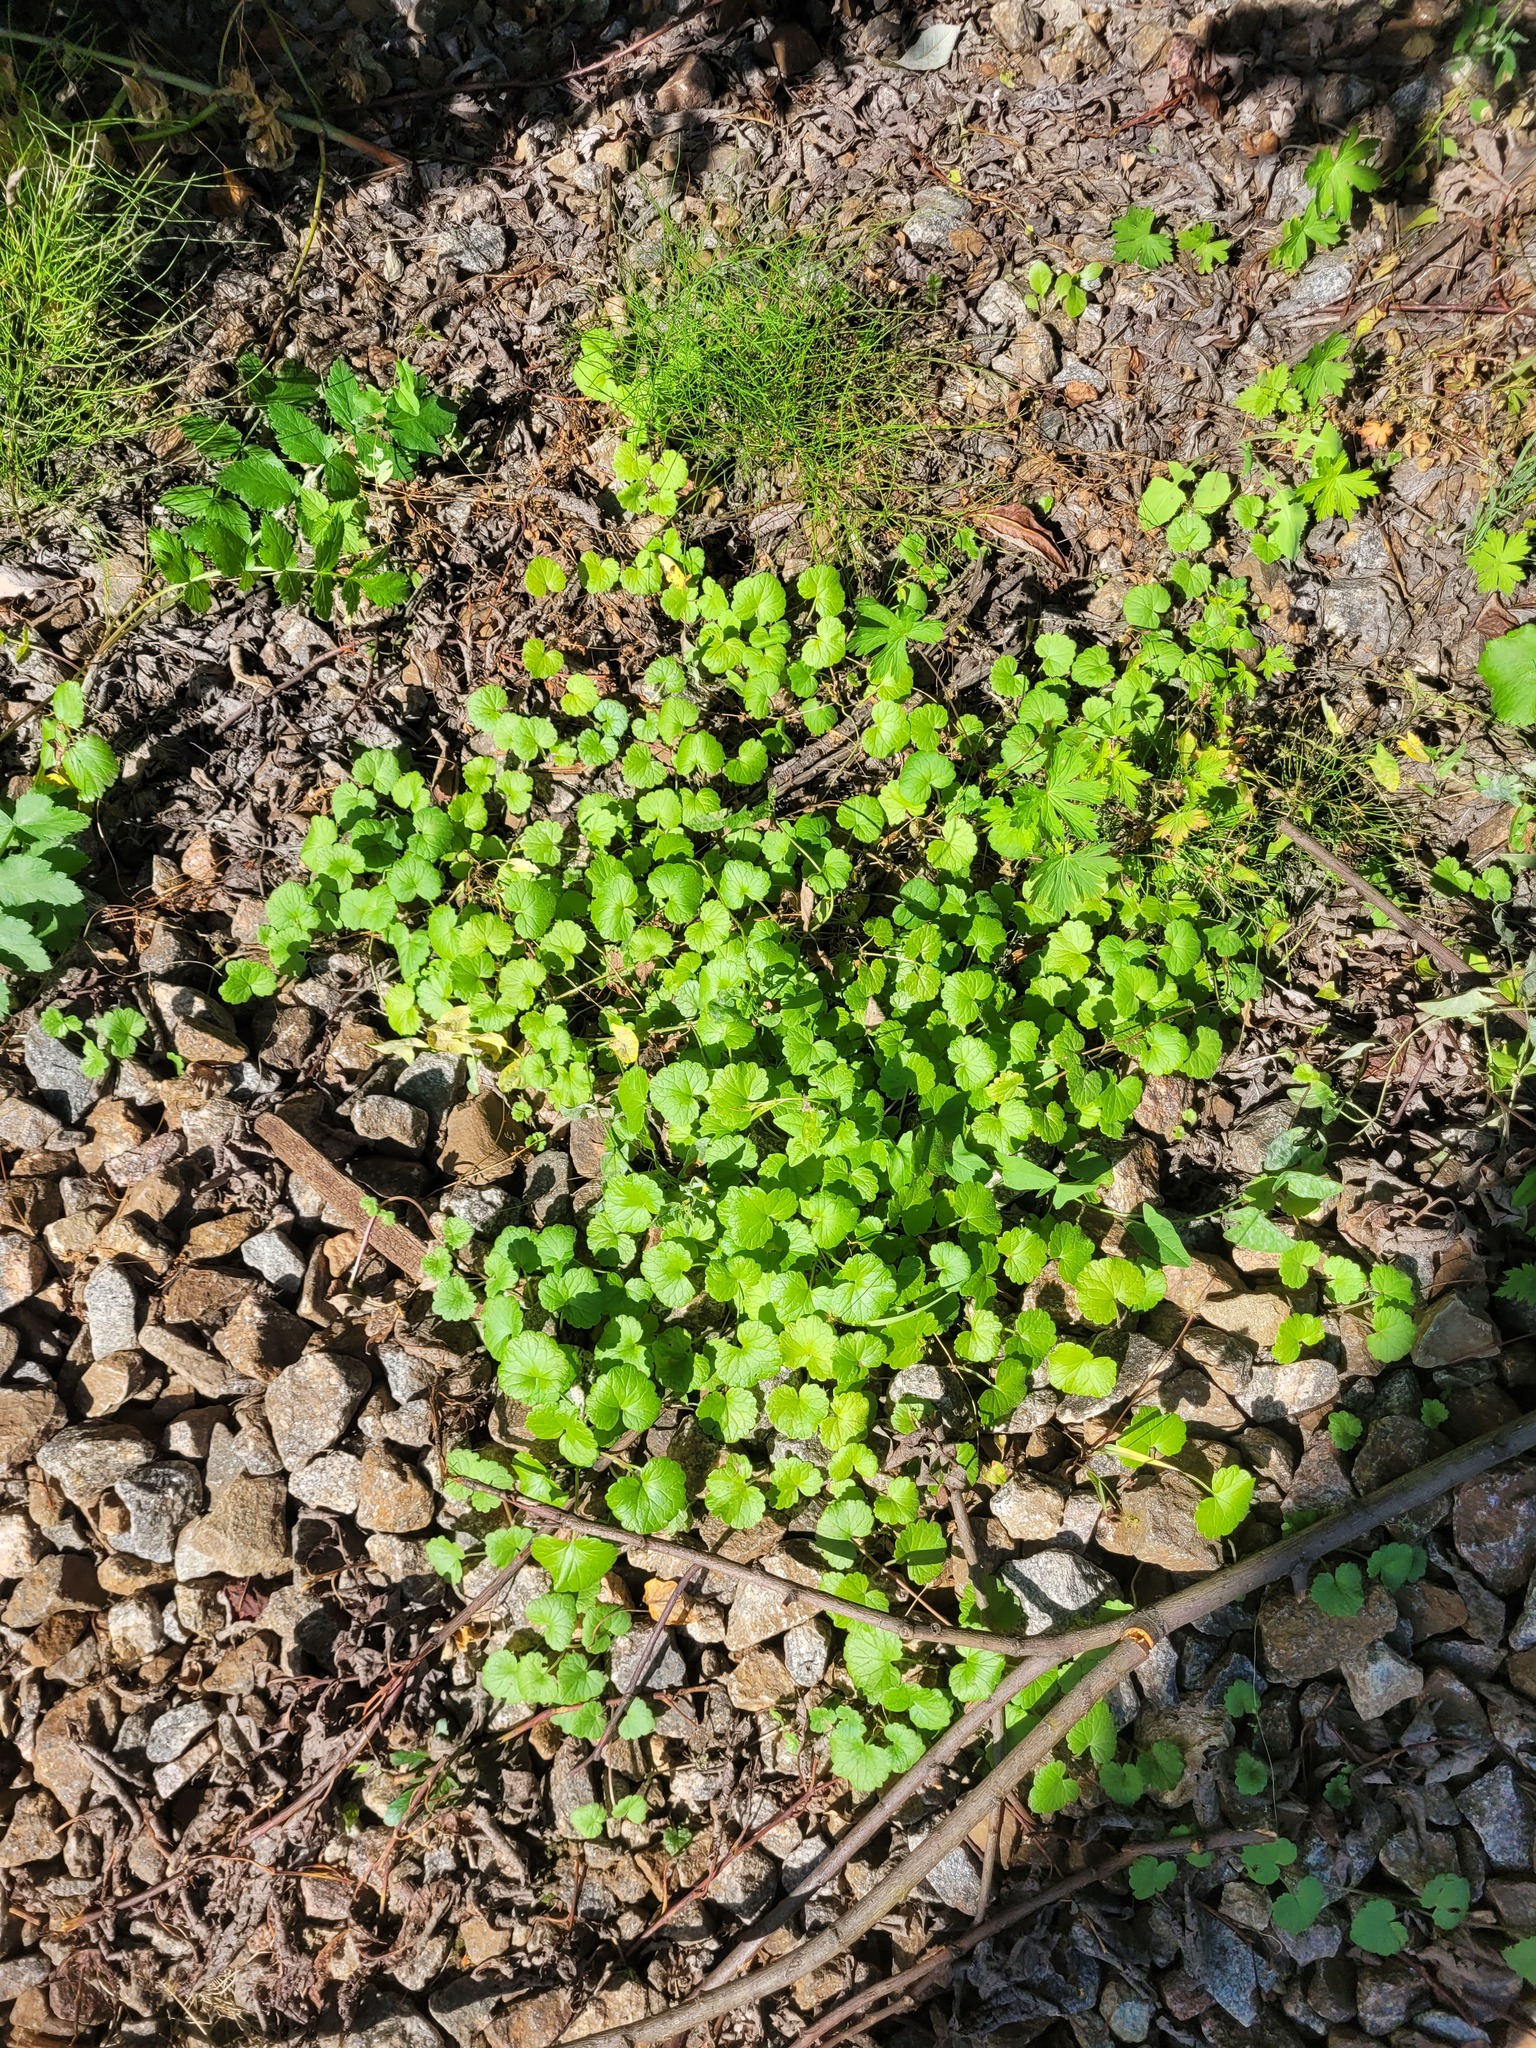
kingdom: Plantae
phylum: Tracheophyta
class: Magnoliopsida
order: Lamiales
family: Lamiaceae
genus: Glechoma
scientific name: Glechoma hederacea
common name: Ground ivy
